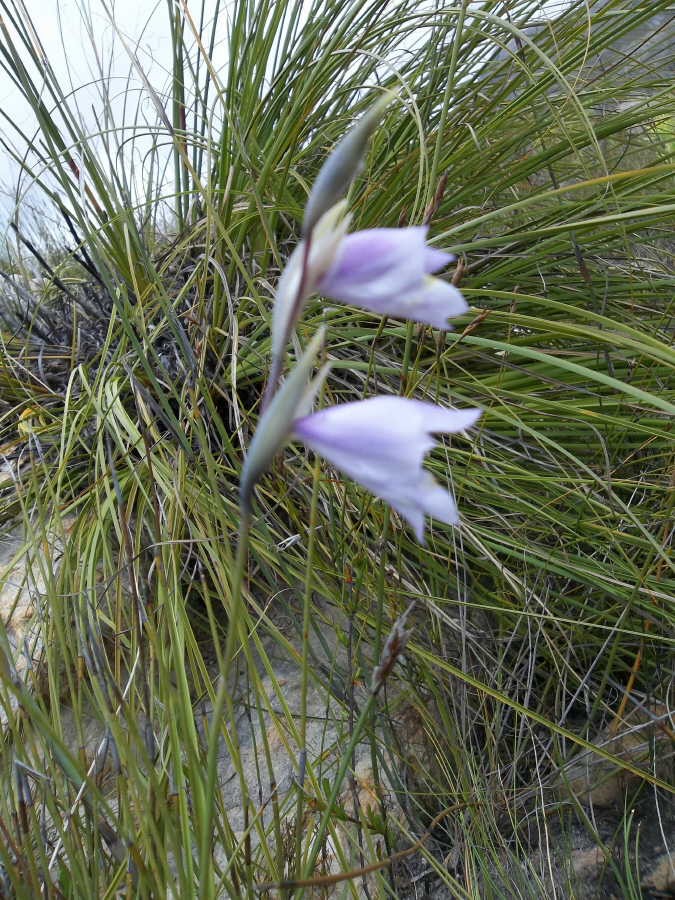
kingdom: Plantae
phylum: Tracheophyta
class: Liliopsida
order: Asparagales
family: Iridaceae
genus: Gladiolus
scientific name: Gladiolus rogersii
